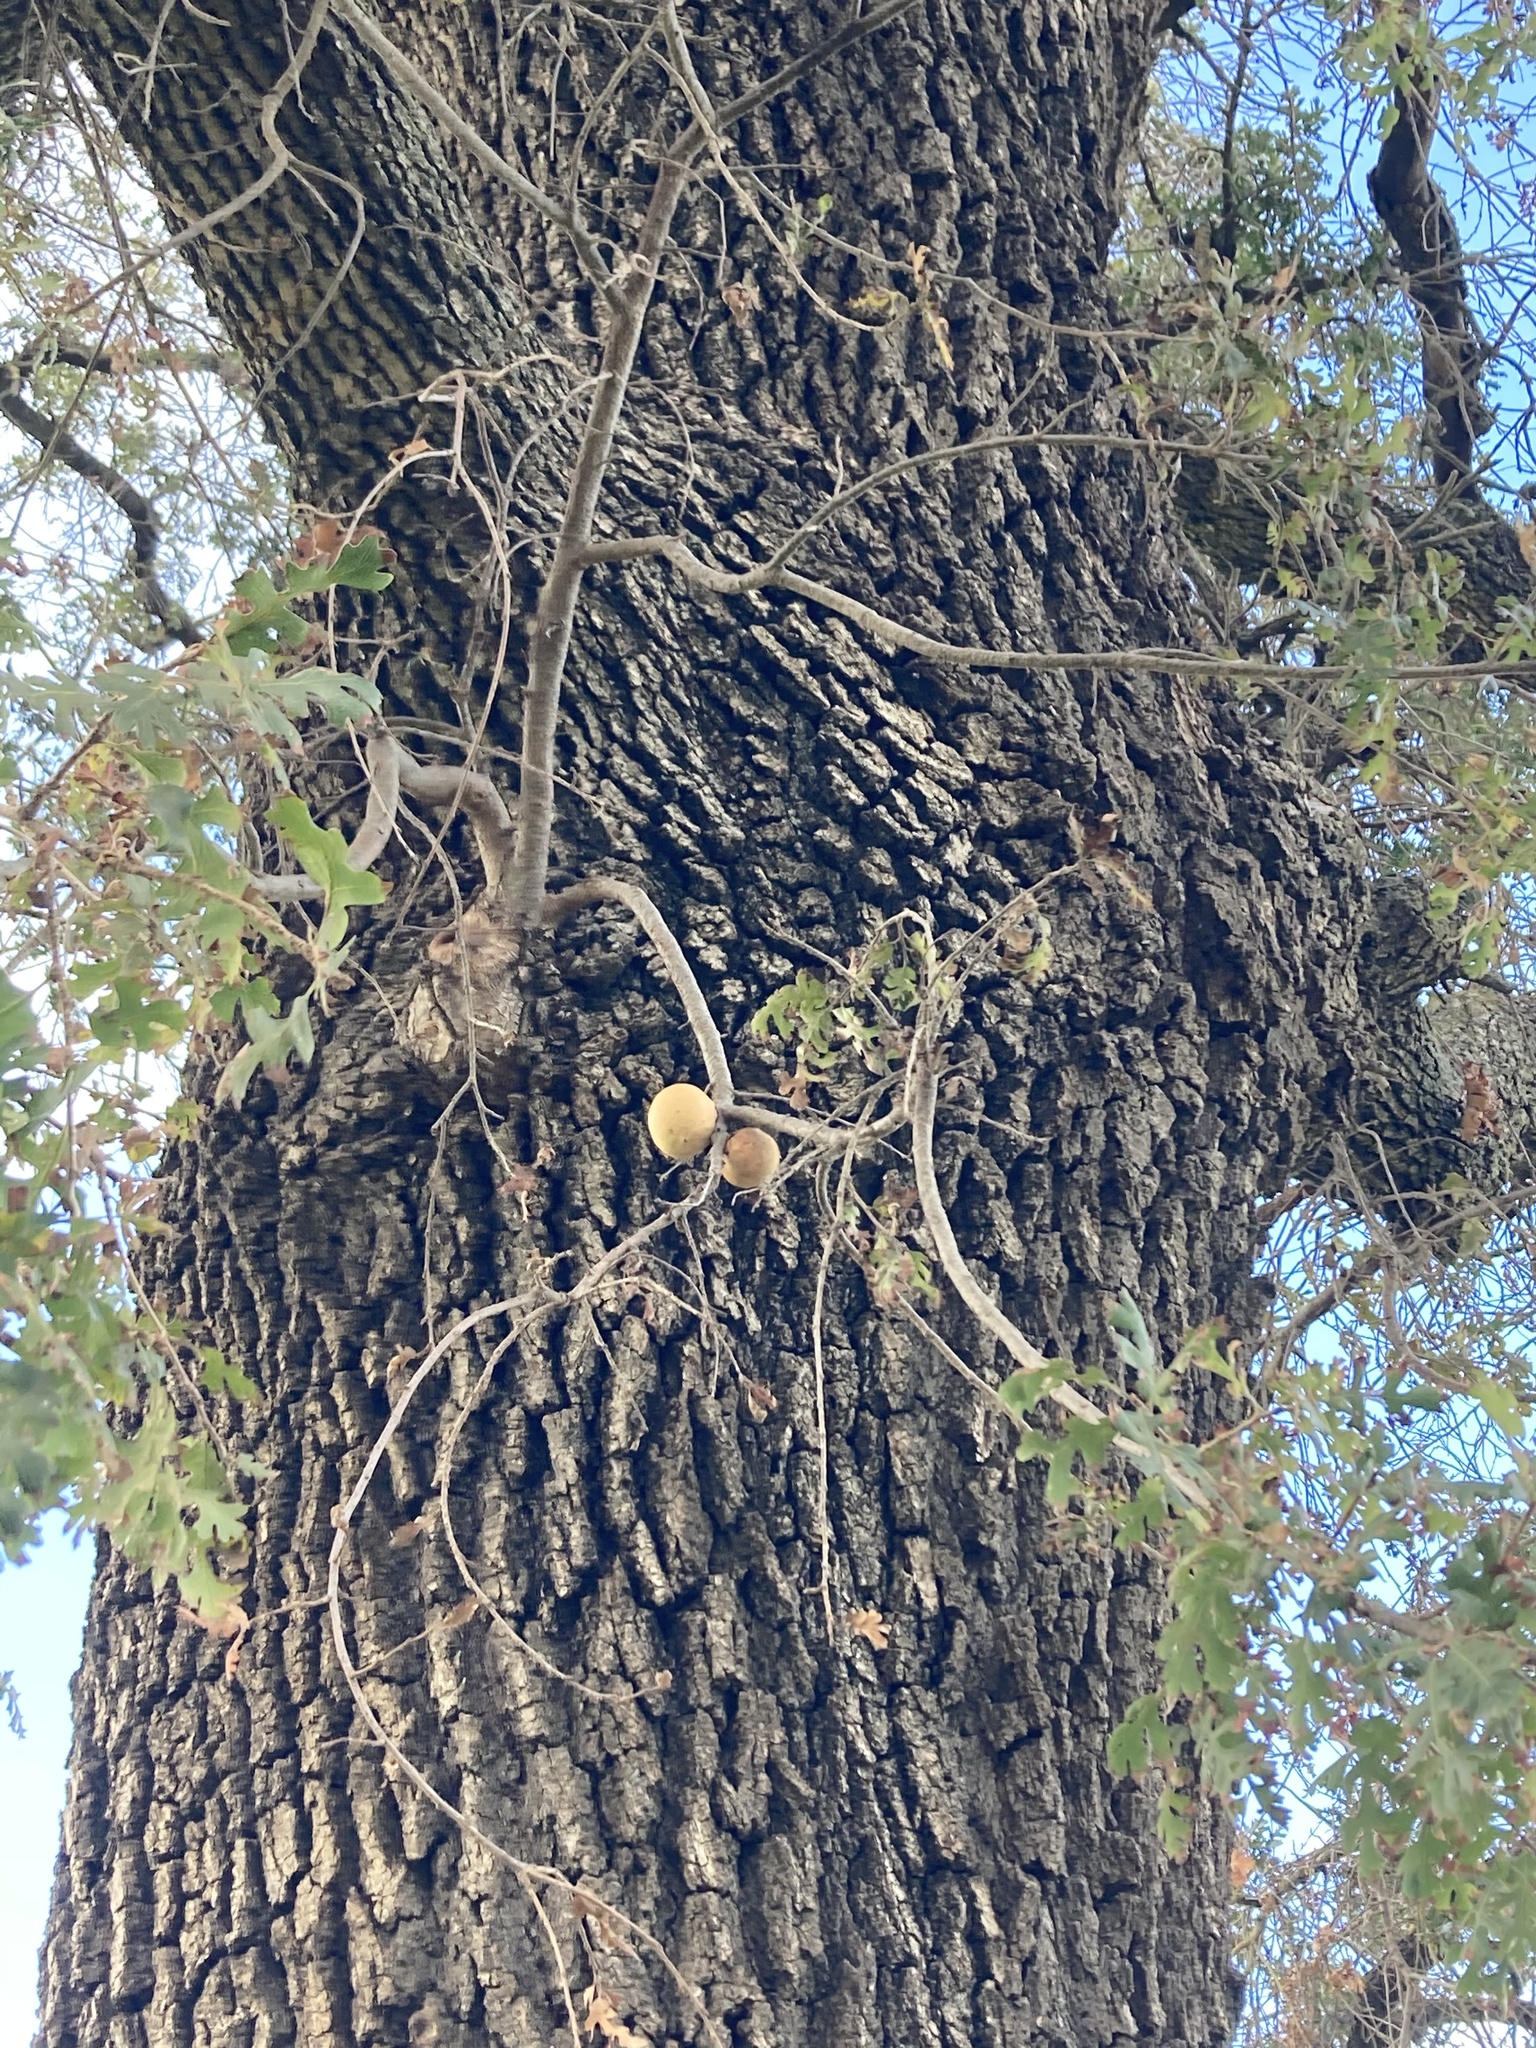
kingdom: Plantae
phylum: Tracheophyta
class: Magnoliopsida
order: Fagales
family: Fagaceae
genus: Quercus
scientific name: Quercus lobata
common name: Valley oak
